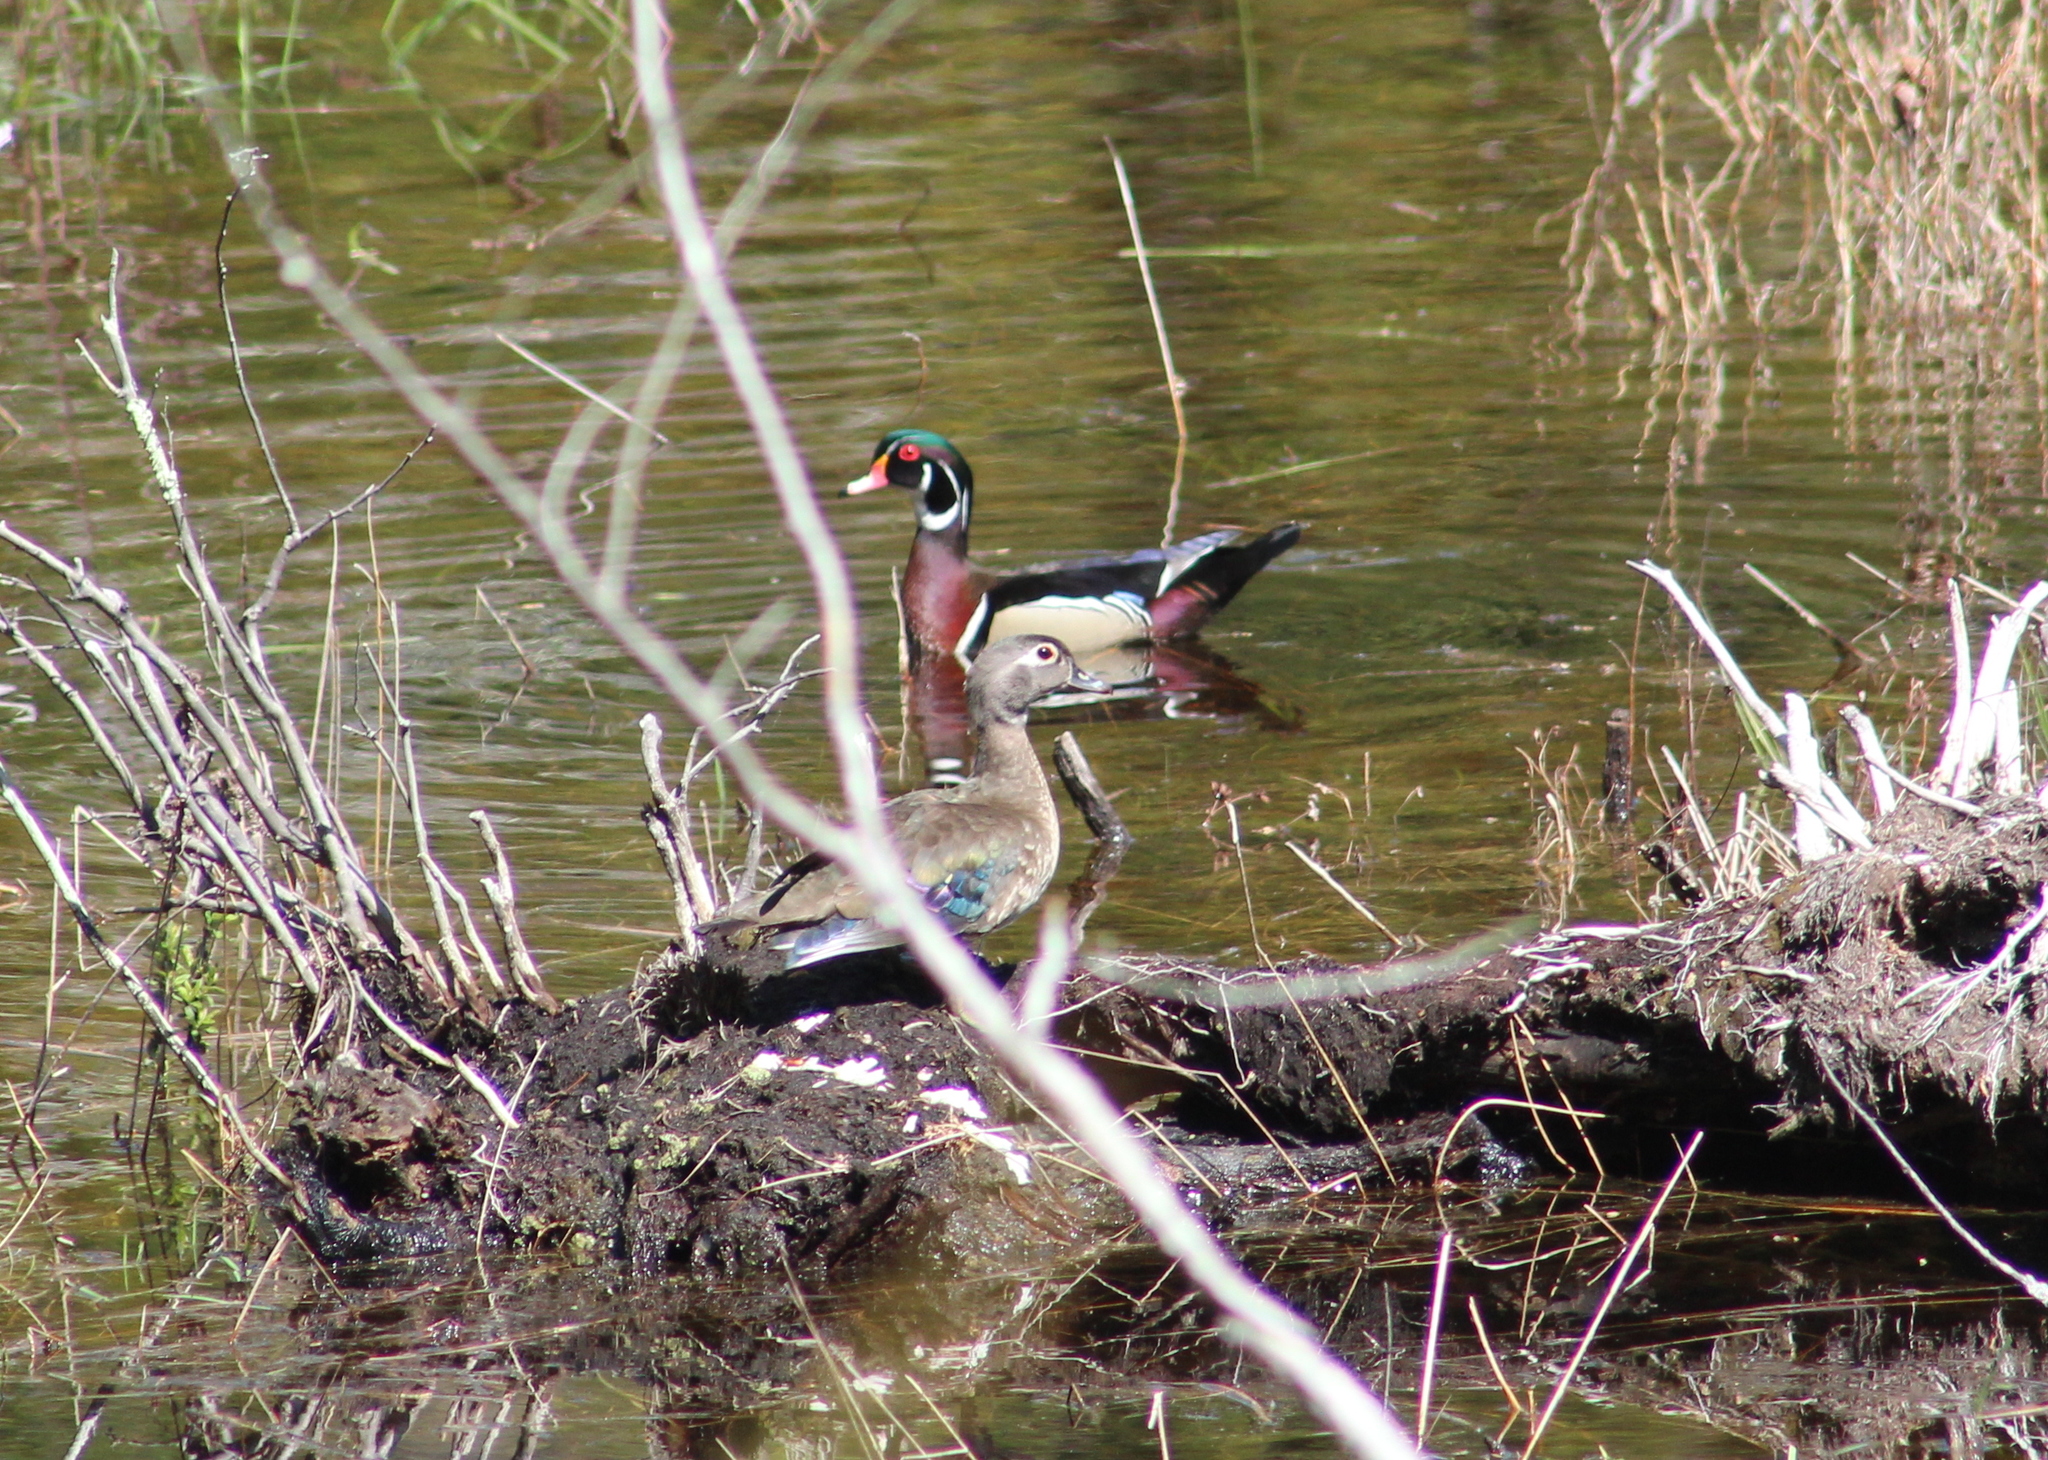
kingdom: Animalia
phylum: Chordata
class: Aves
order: Anseriformes
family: Anatidae
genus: Aix
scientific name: Aix sponsa
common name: Wood duck
